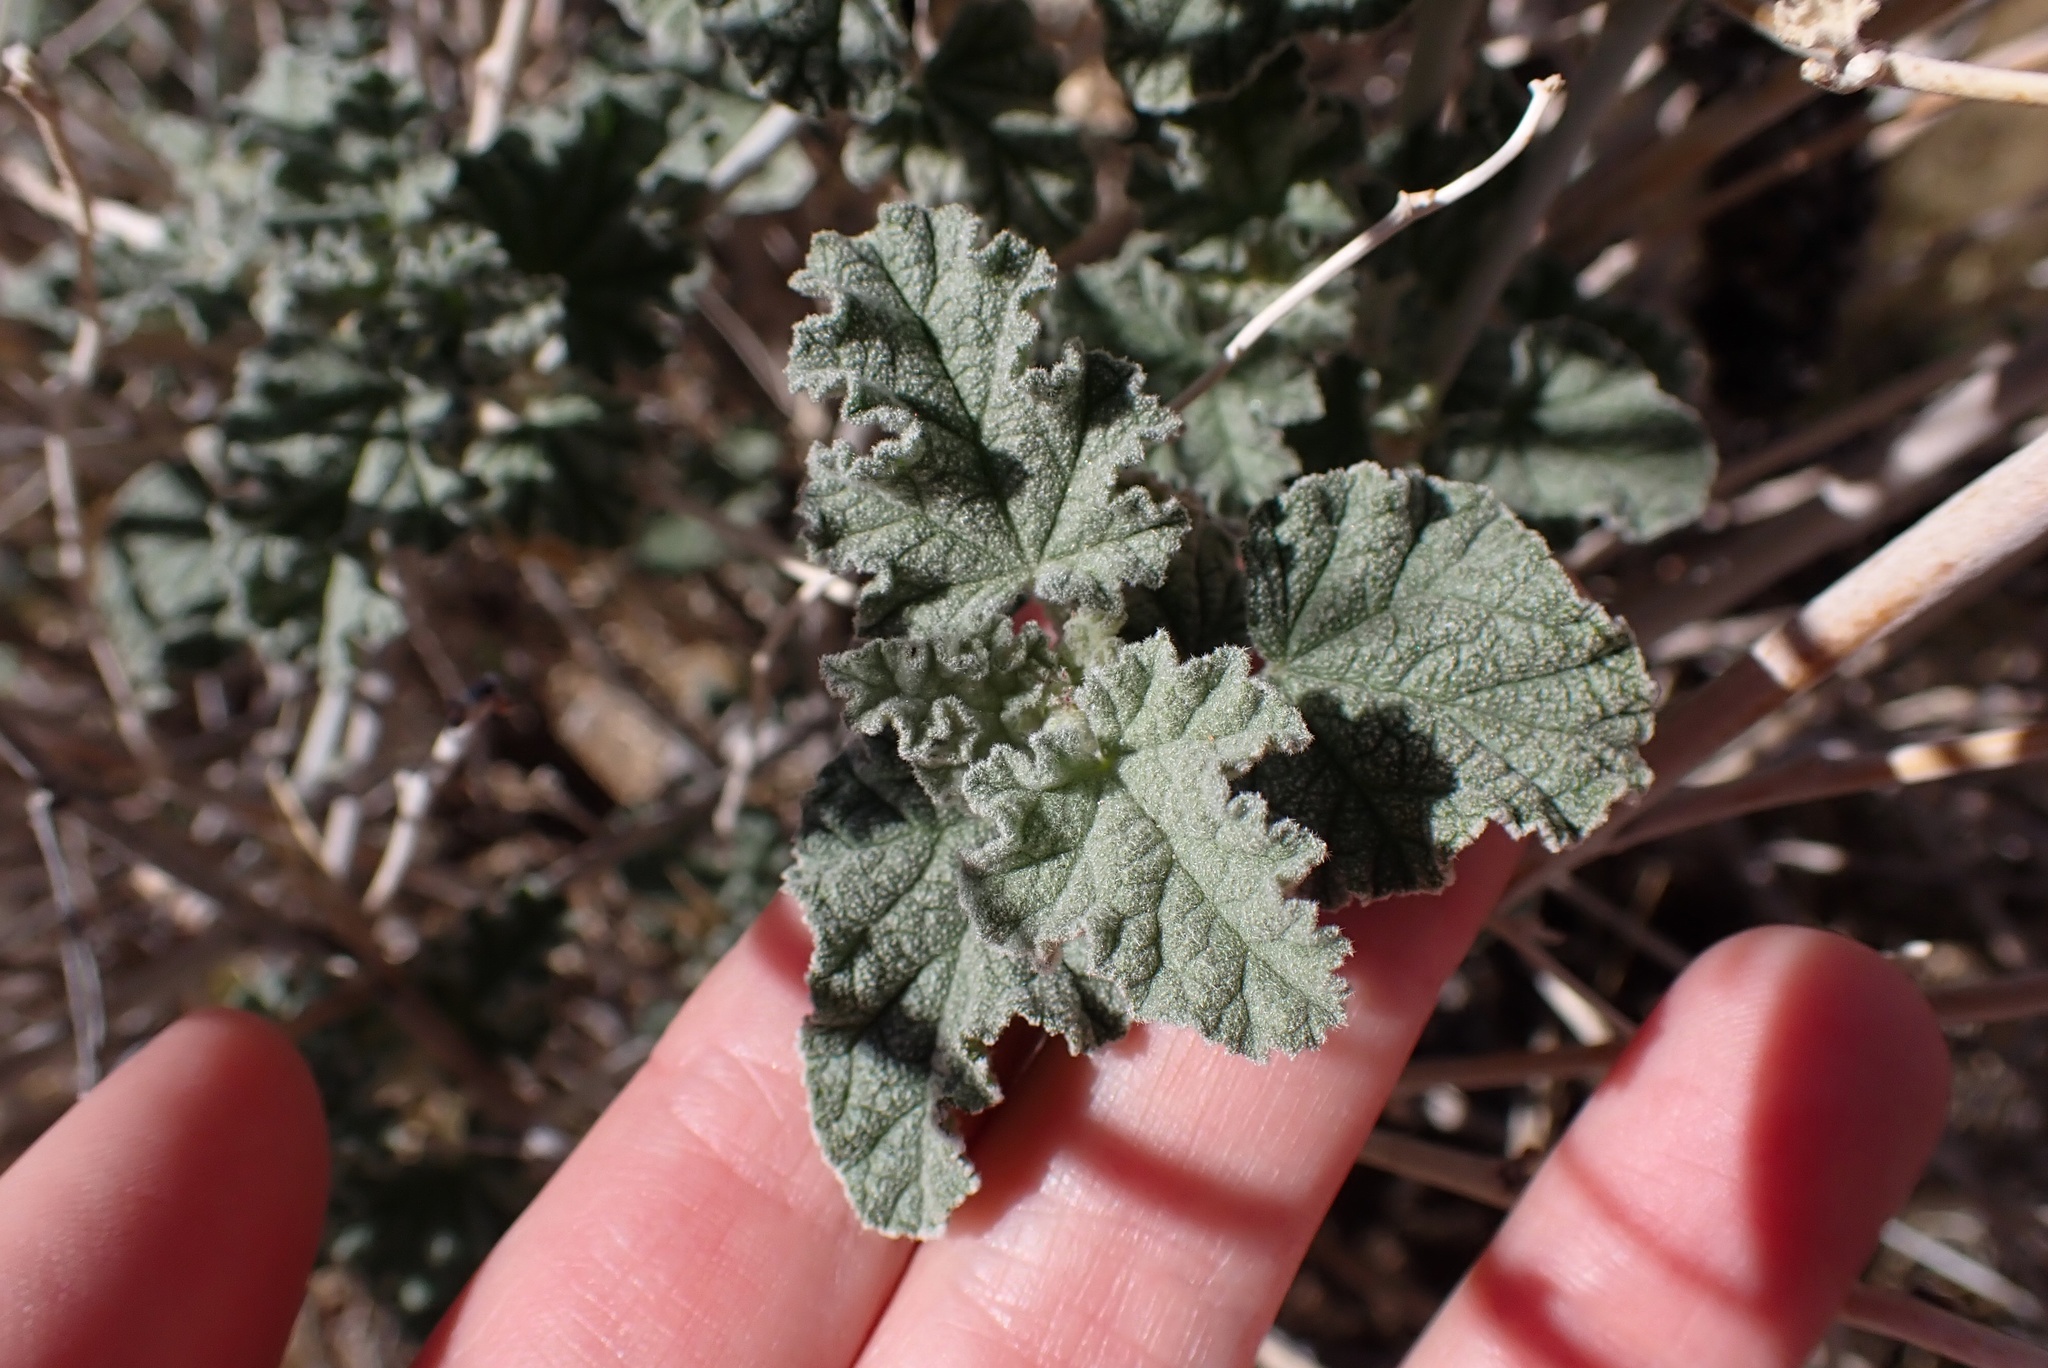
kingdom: Plantae
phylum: Tracheophyta
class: Magnoliopsida
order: Malvales
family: Malvaceae
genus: Sphaeralcea
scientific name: Sphaeralcea ambigua
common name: Apricot globe-mallow
